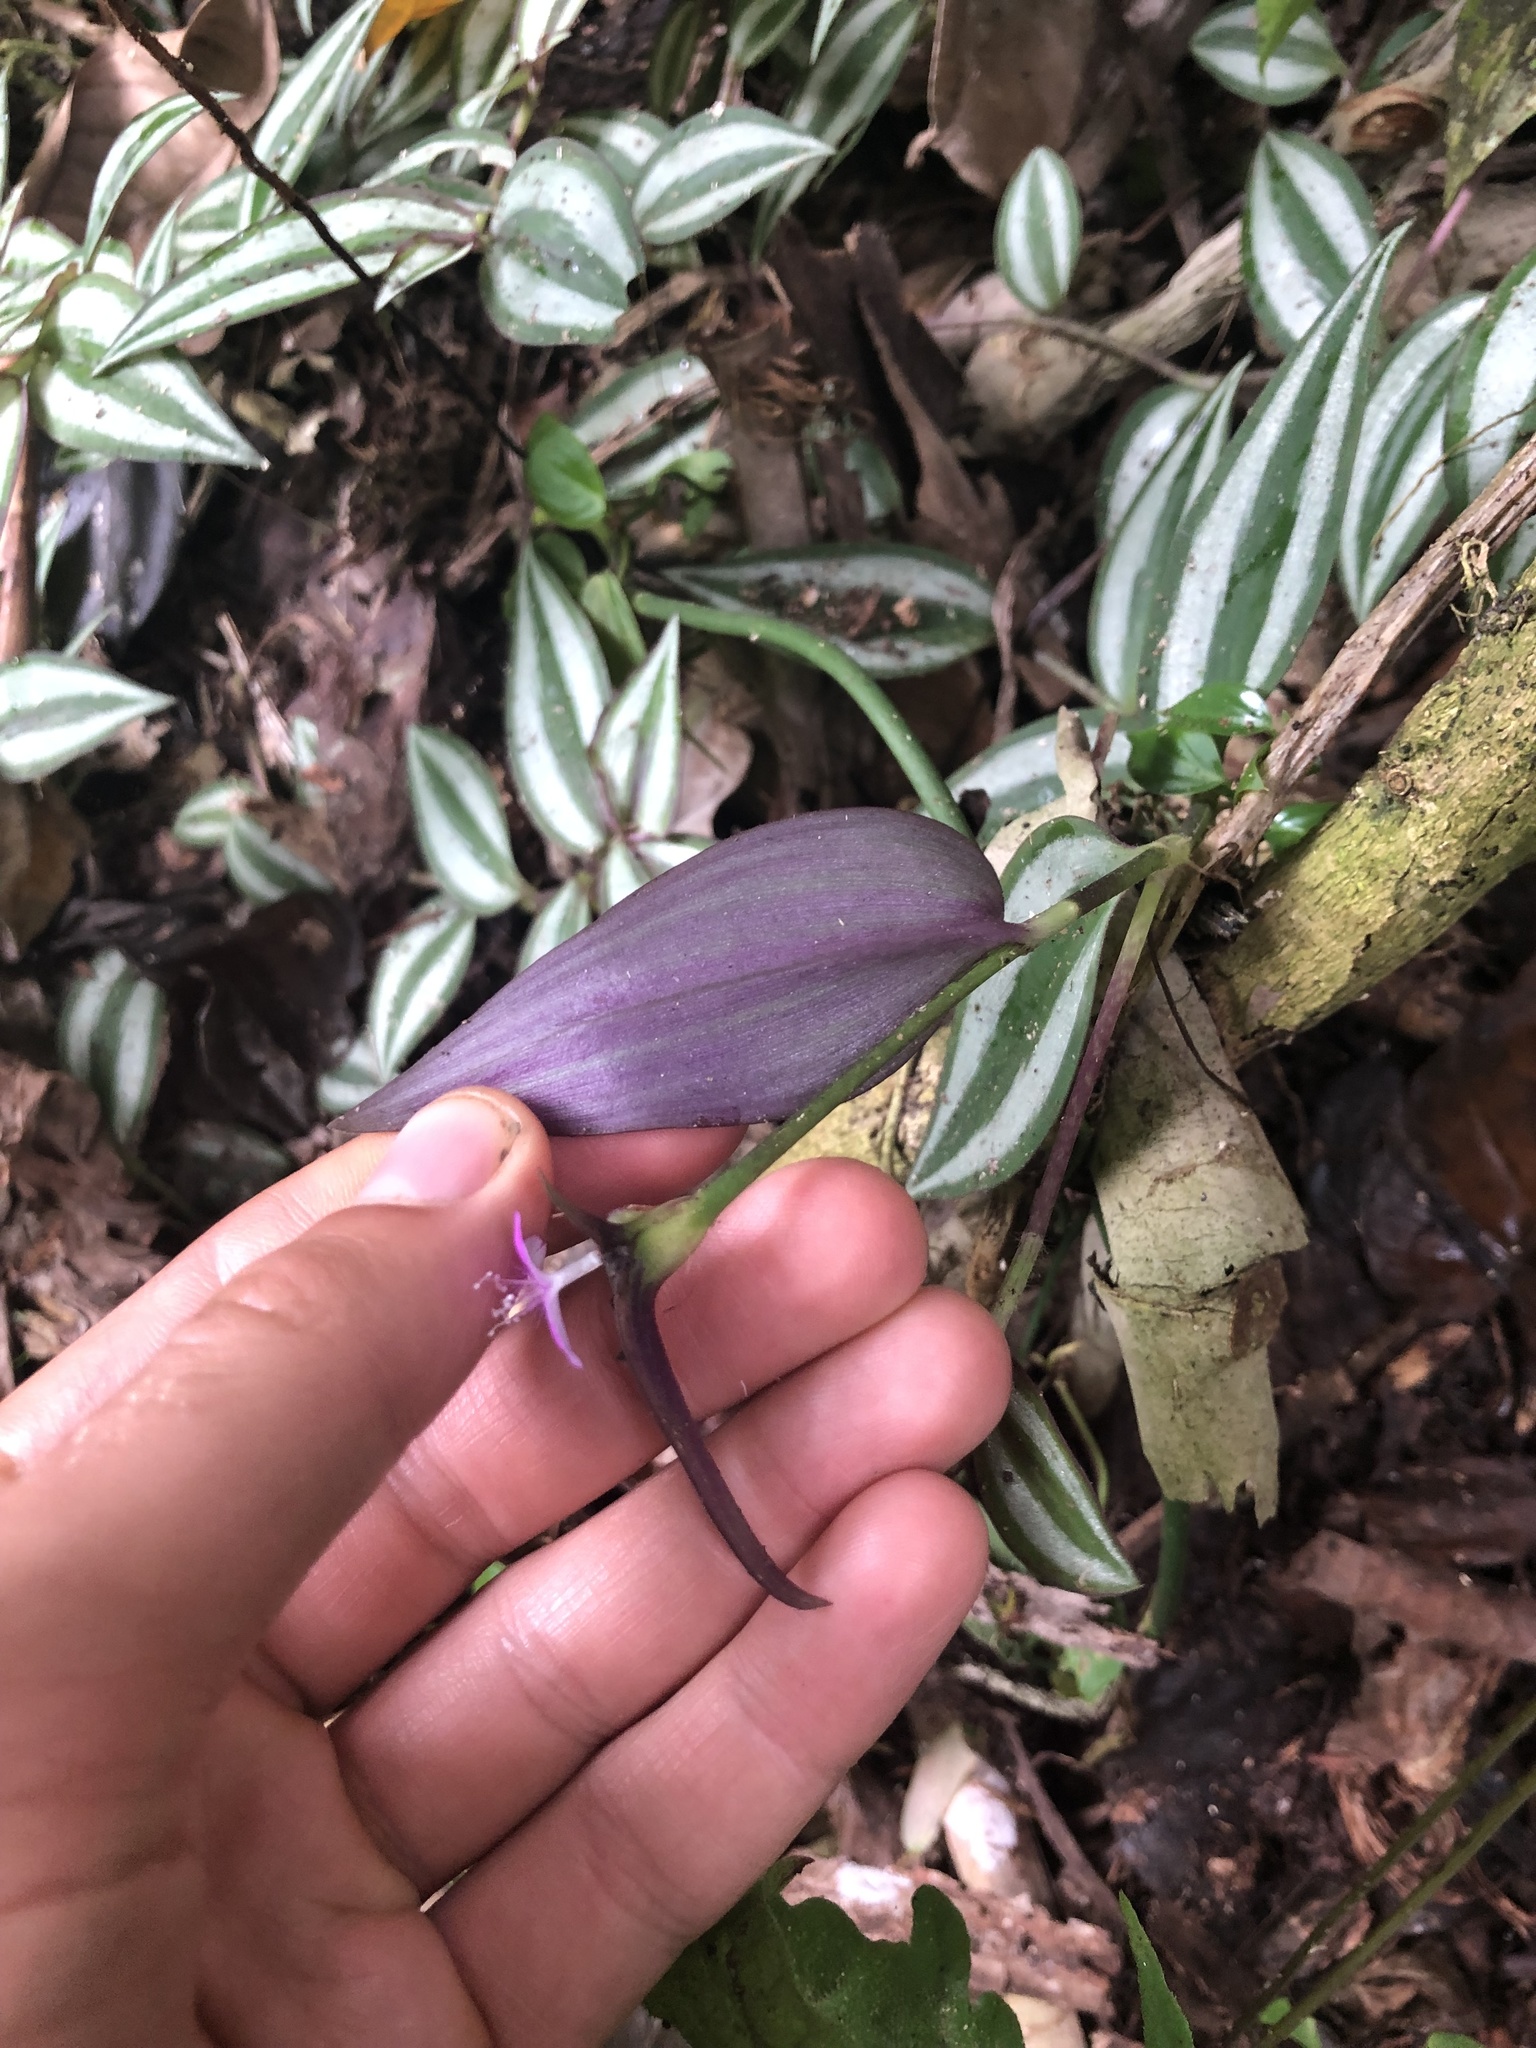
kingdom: Plantae
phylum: Tracheophyta
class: Liliopsida
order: Commelinales
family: Commelinaceae
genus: Tradescantia
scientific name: Tradescantia zebrina
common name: Inchplant
